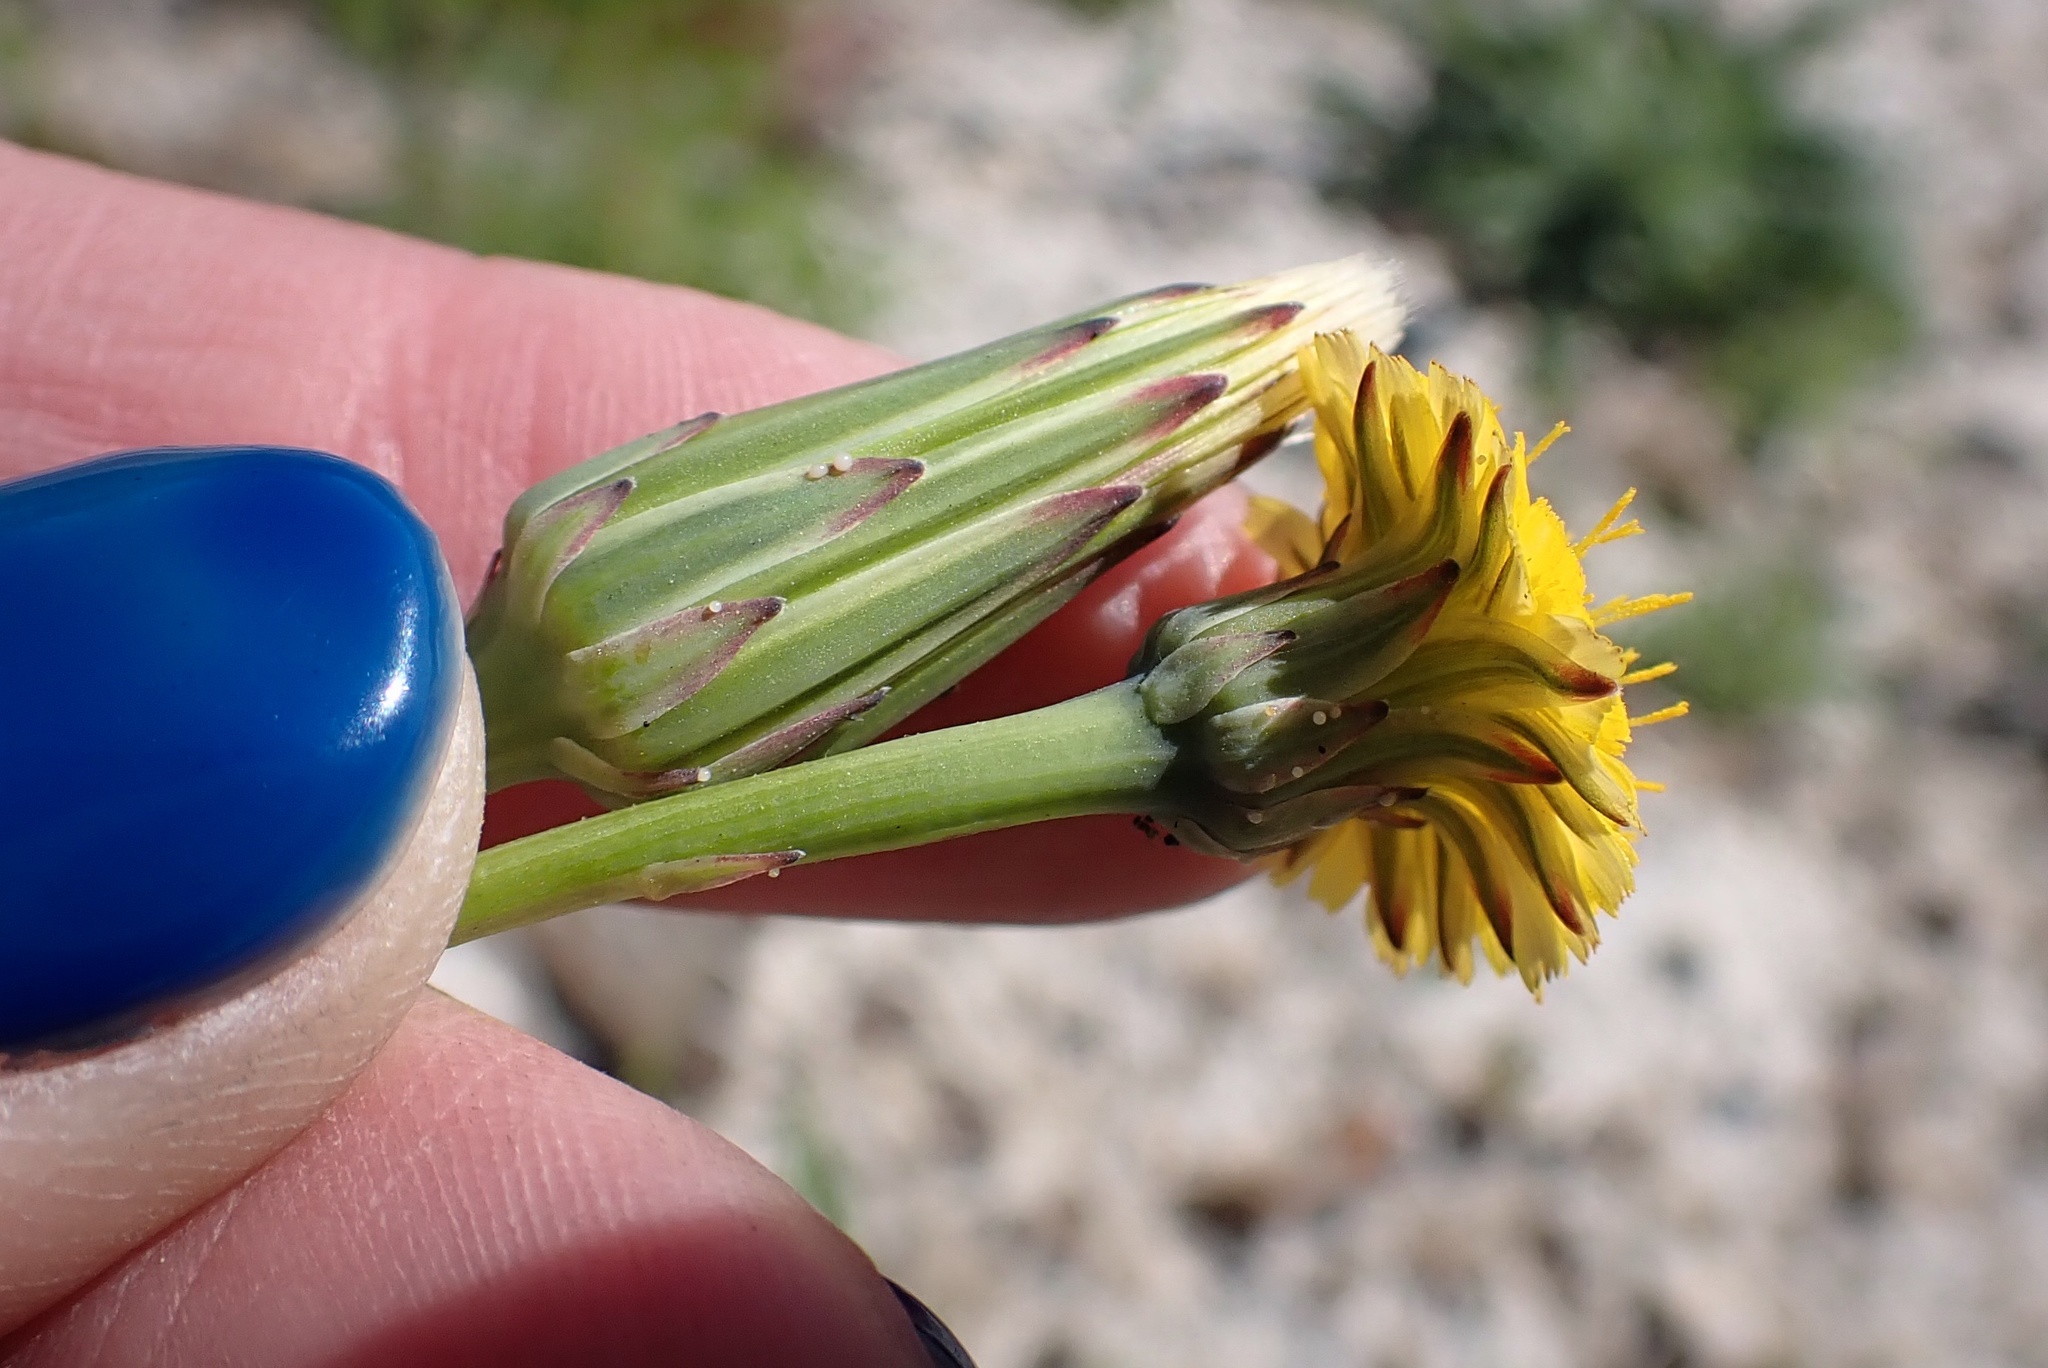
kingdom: Plantae
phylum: Tracheophyta
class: Magnoliopsida
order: Asterales
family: Asteraceae
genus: Hypochaeris
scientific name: Hypochaeris glabra
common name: Smooth catsear
